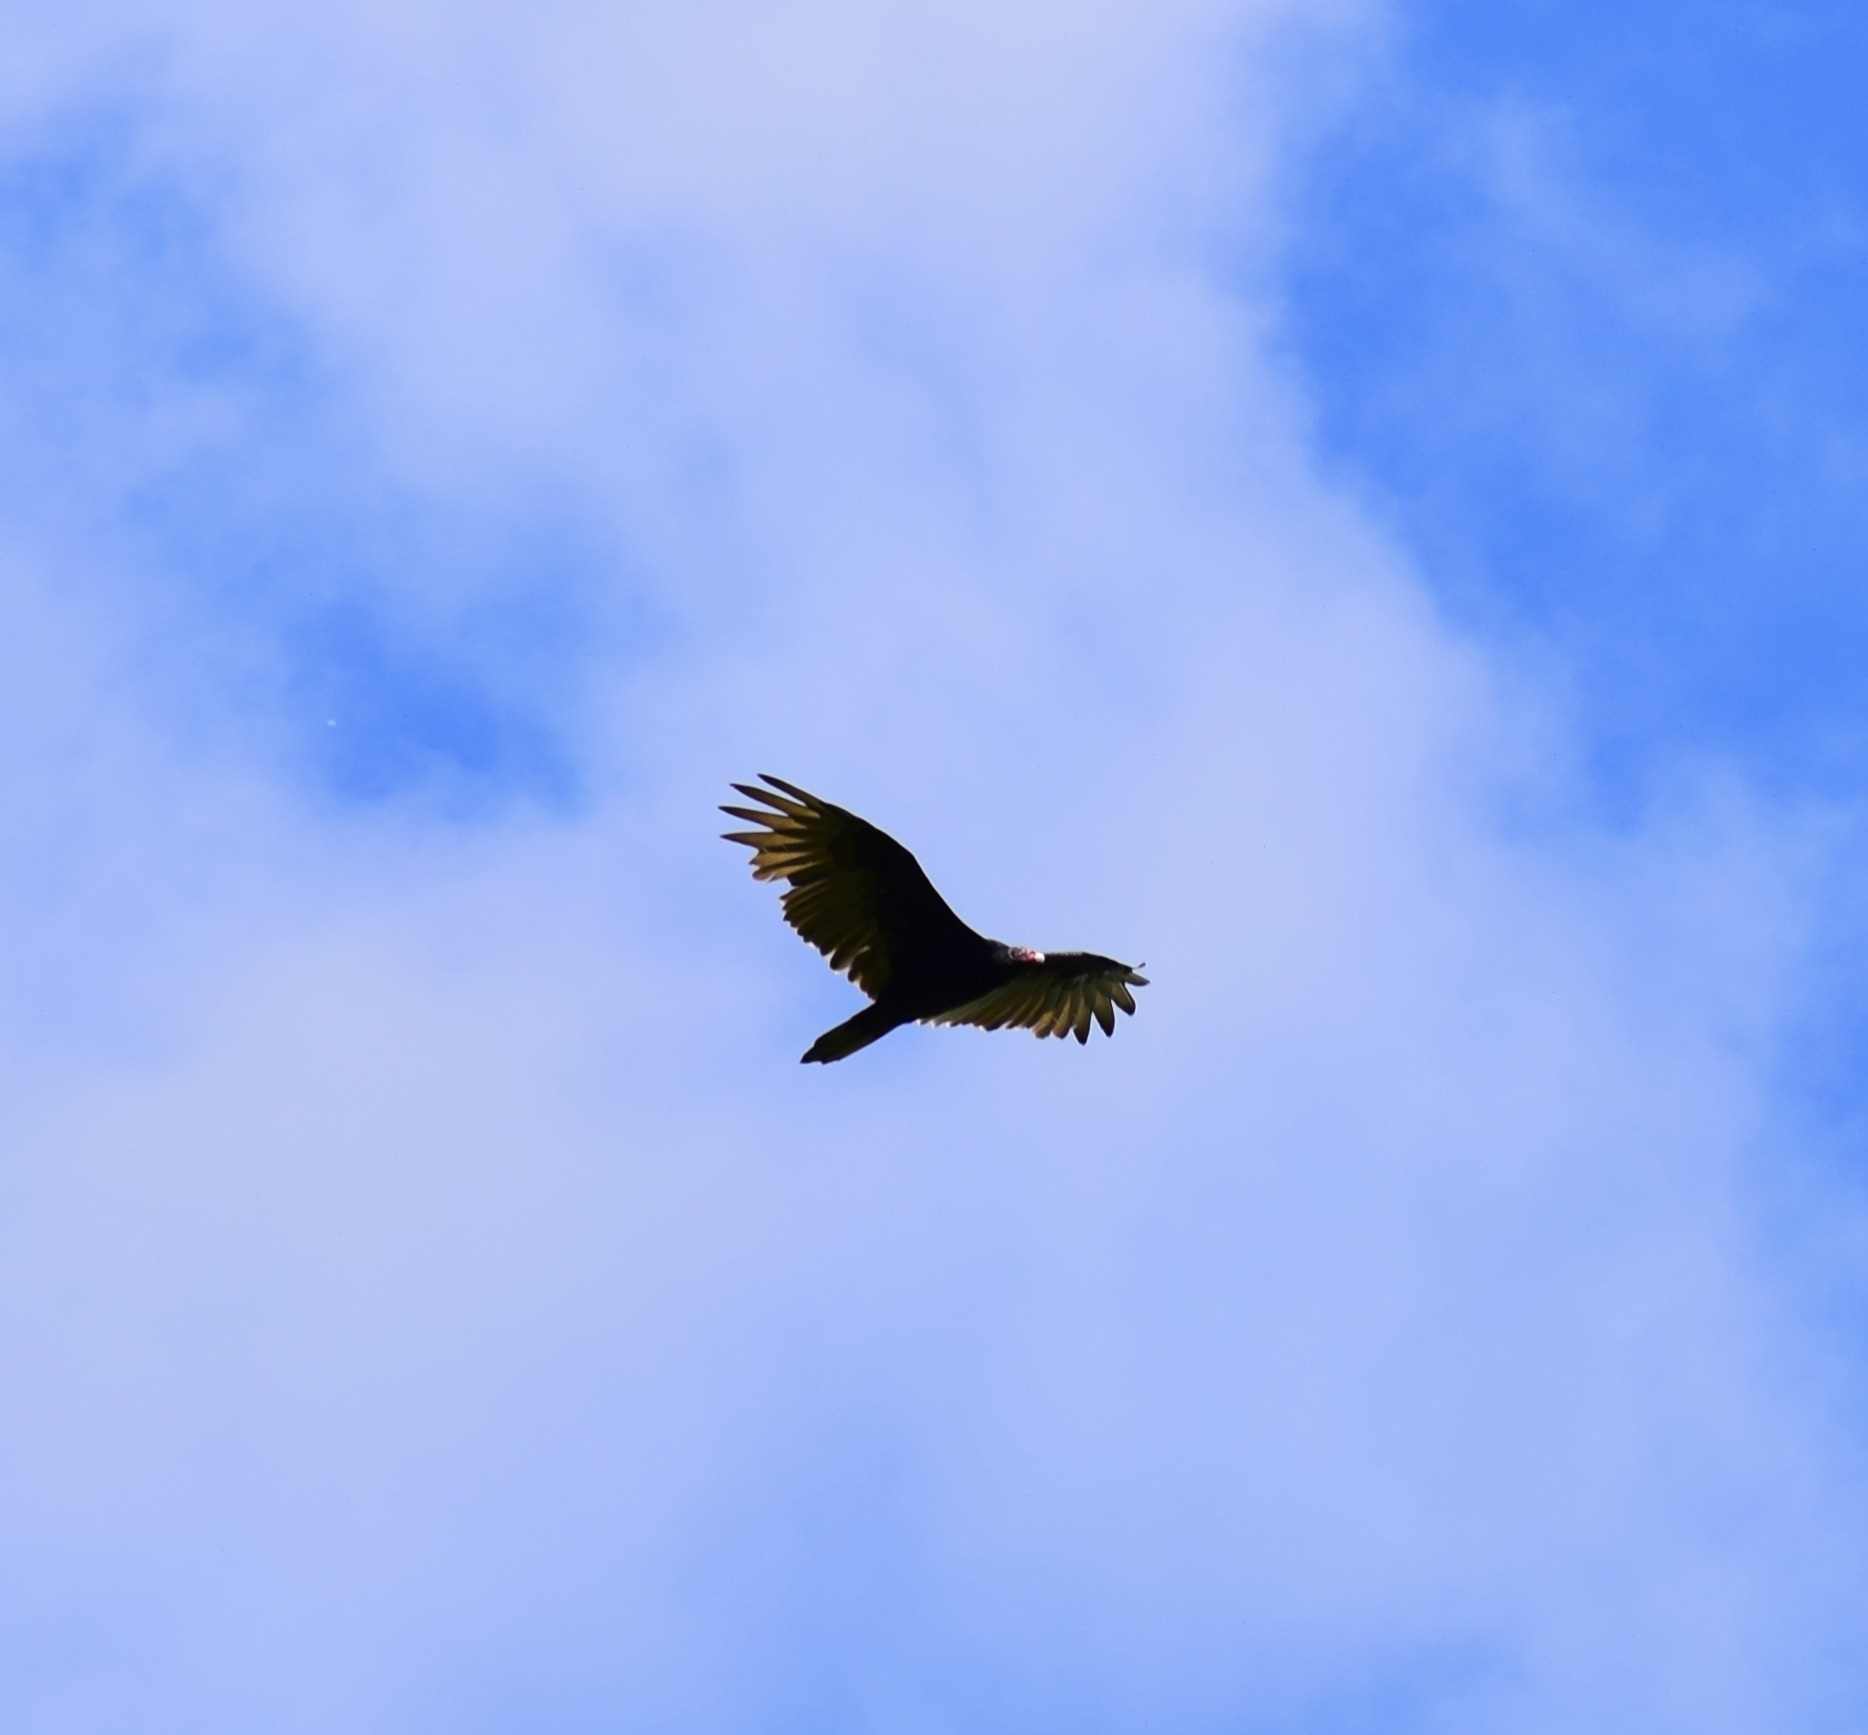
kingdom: Animalia
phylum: Chordata
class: Aves
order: Accipitriformes
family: Cathartidae
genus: Cathartes
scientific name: Cathartes aura
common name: Turkey vulture
